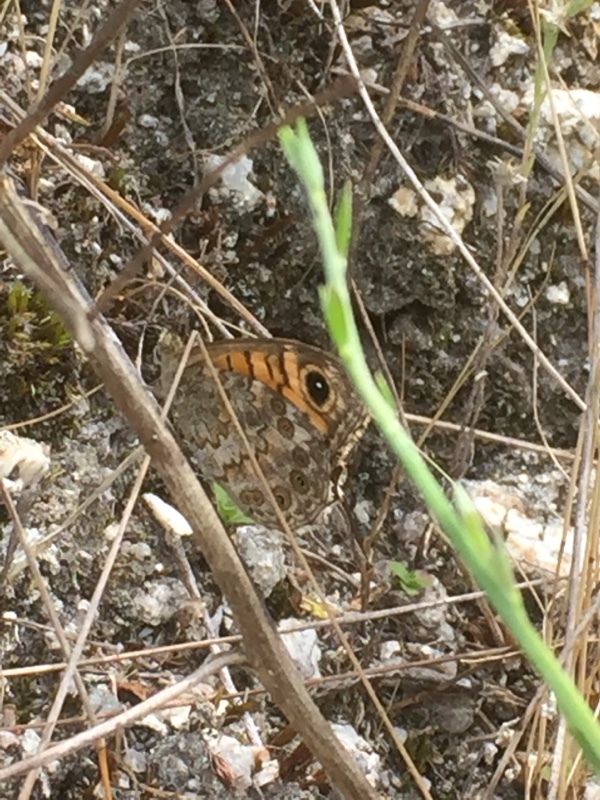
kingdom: Animalia
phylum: Arthropoda
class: Insecta
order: Lepidoptera
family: Nymphalidae
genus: Pararge
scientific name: Pararge Lasiommata megera
